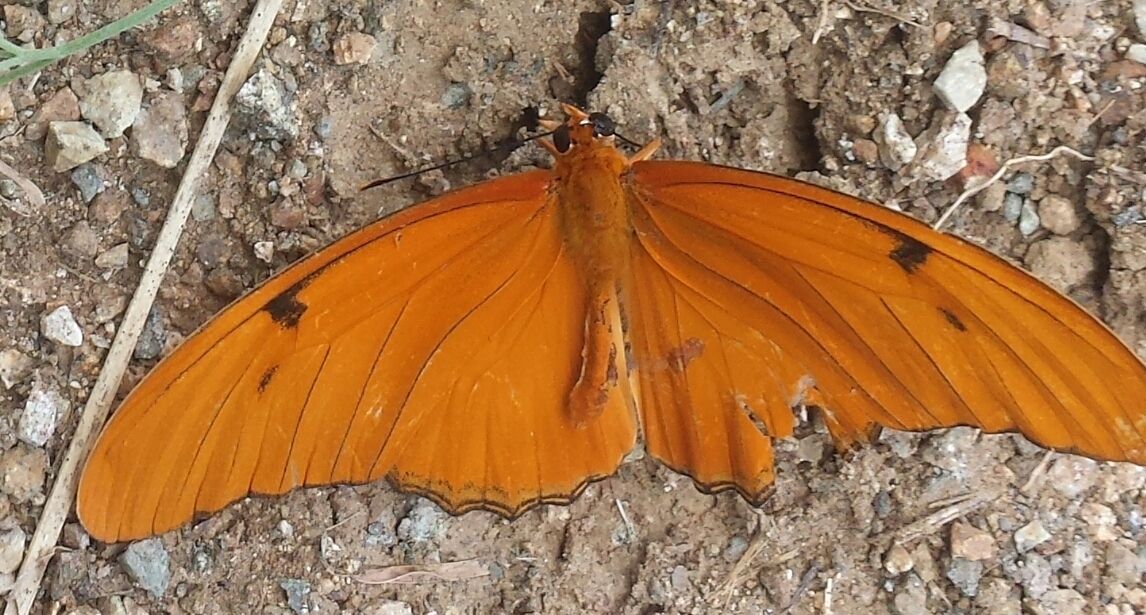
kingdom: Animalia
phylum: Arthropoda
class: Insecta
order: Lepidoptera
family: Nymphalidae
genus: Dryas
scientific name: Dryas iulia
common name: Flambeau
